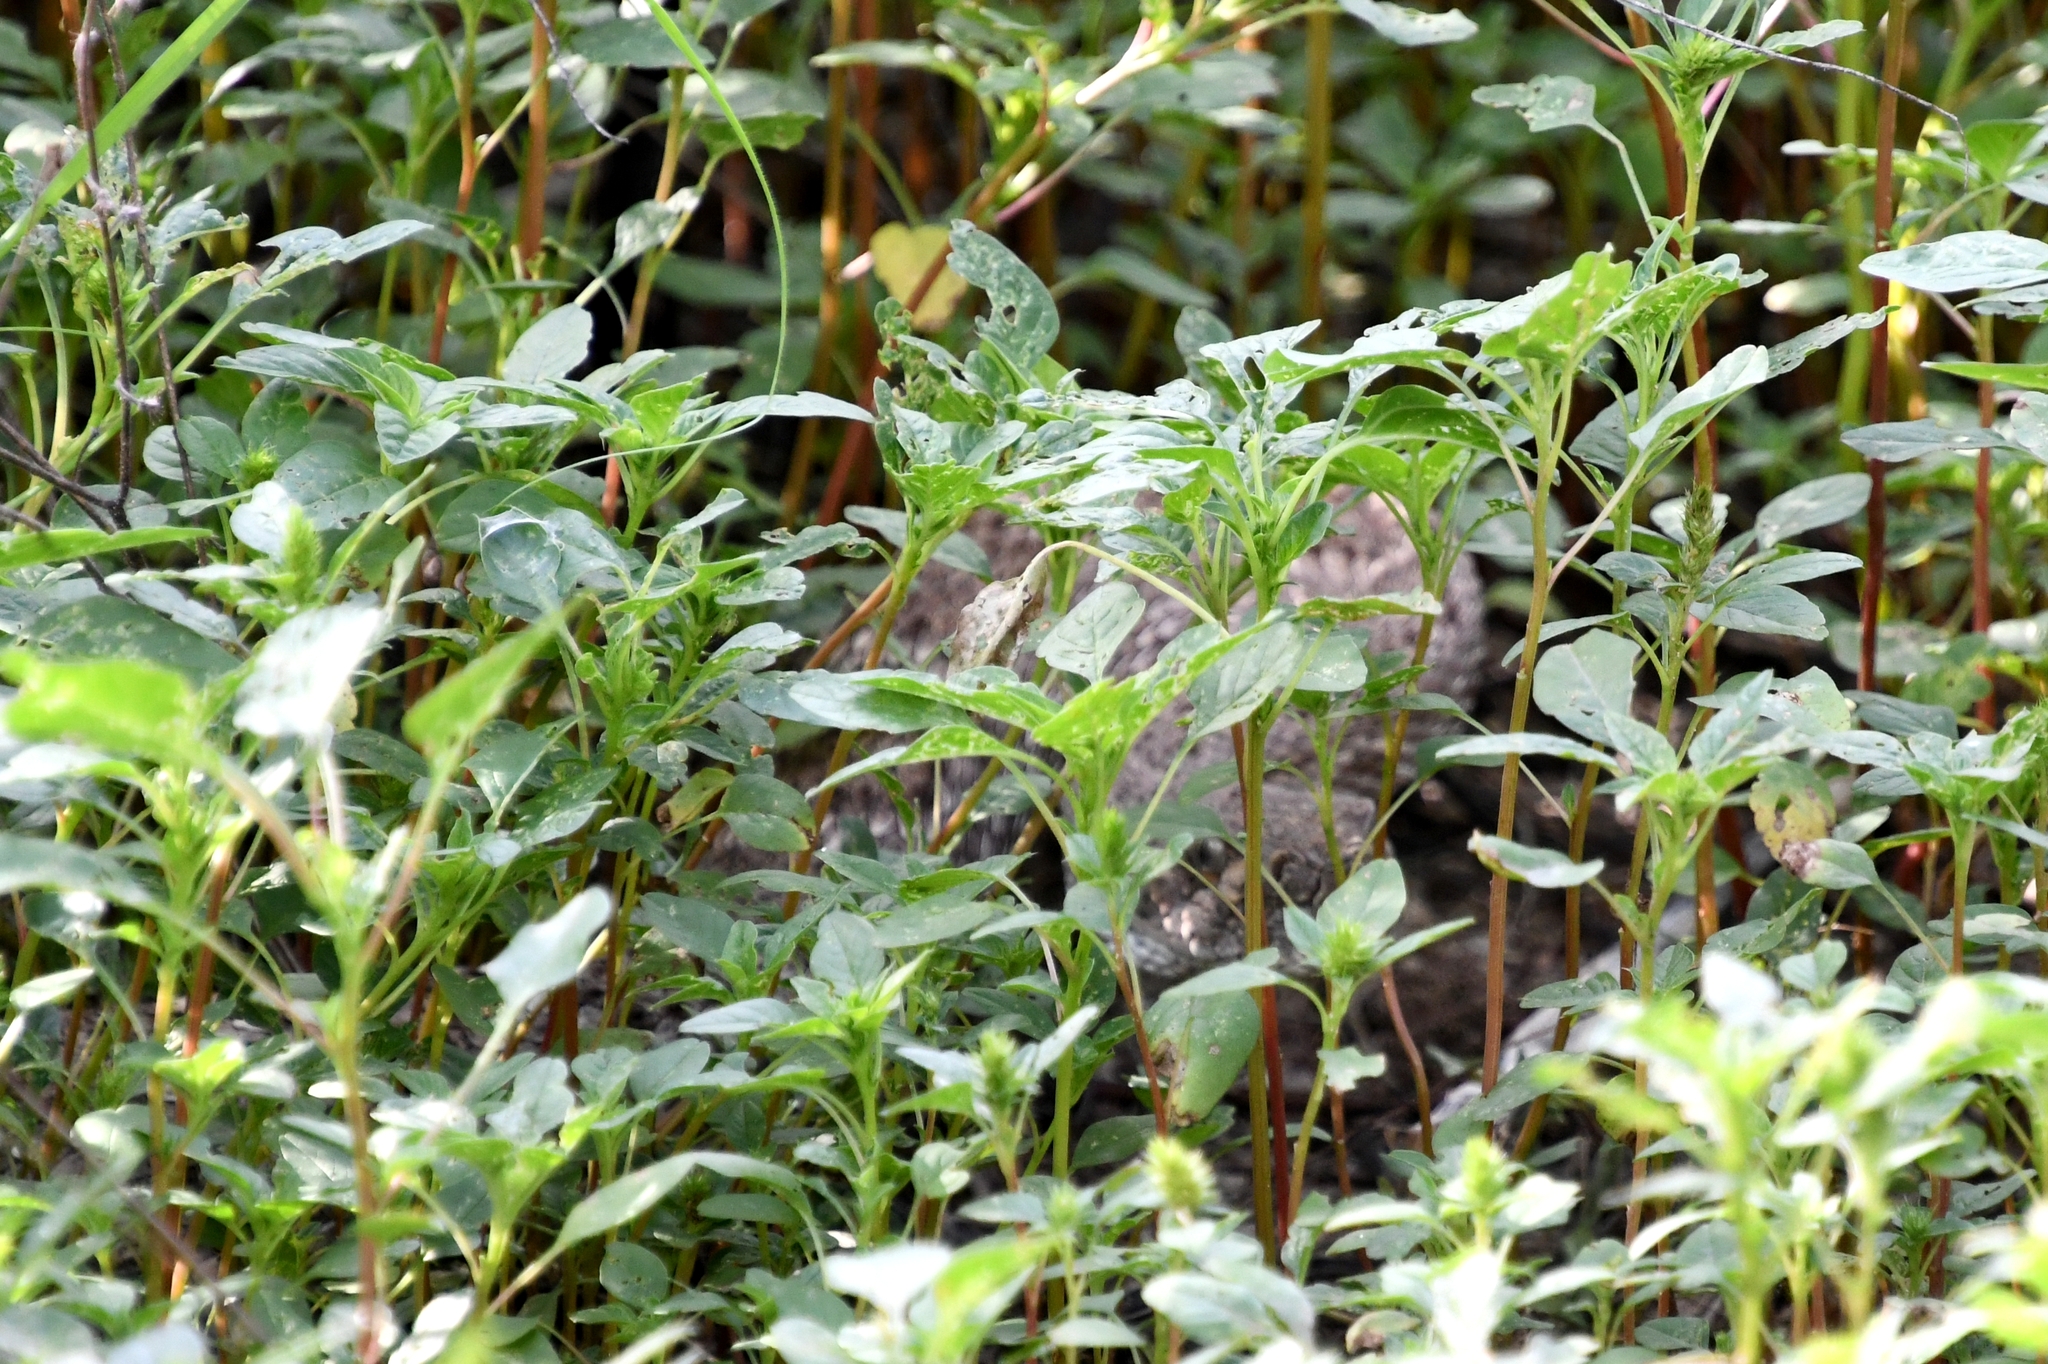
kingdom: Animalia
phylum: Chordata
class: Squamata
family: Viperidae
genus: Crotalus
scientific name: Crotalus atrox
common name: Western diamond-backed rattlesnake
